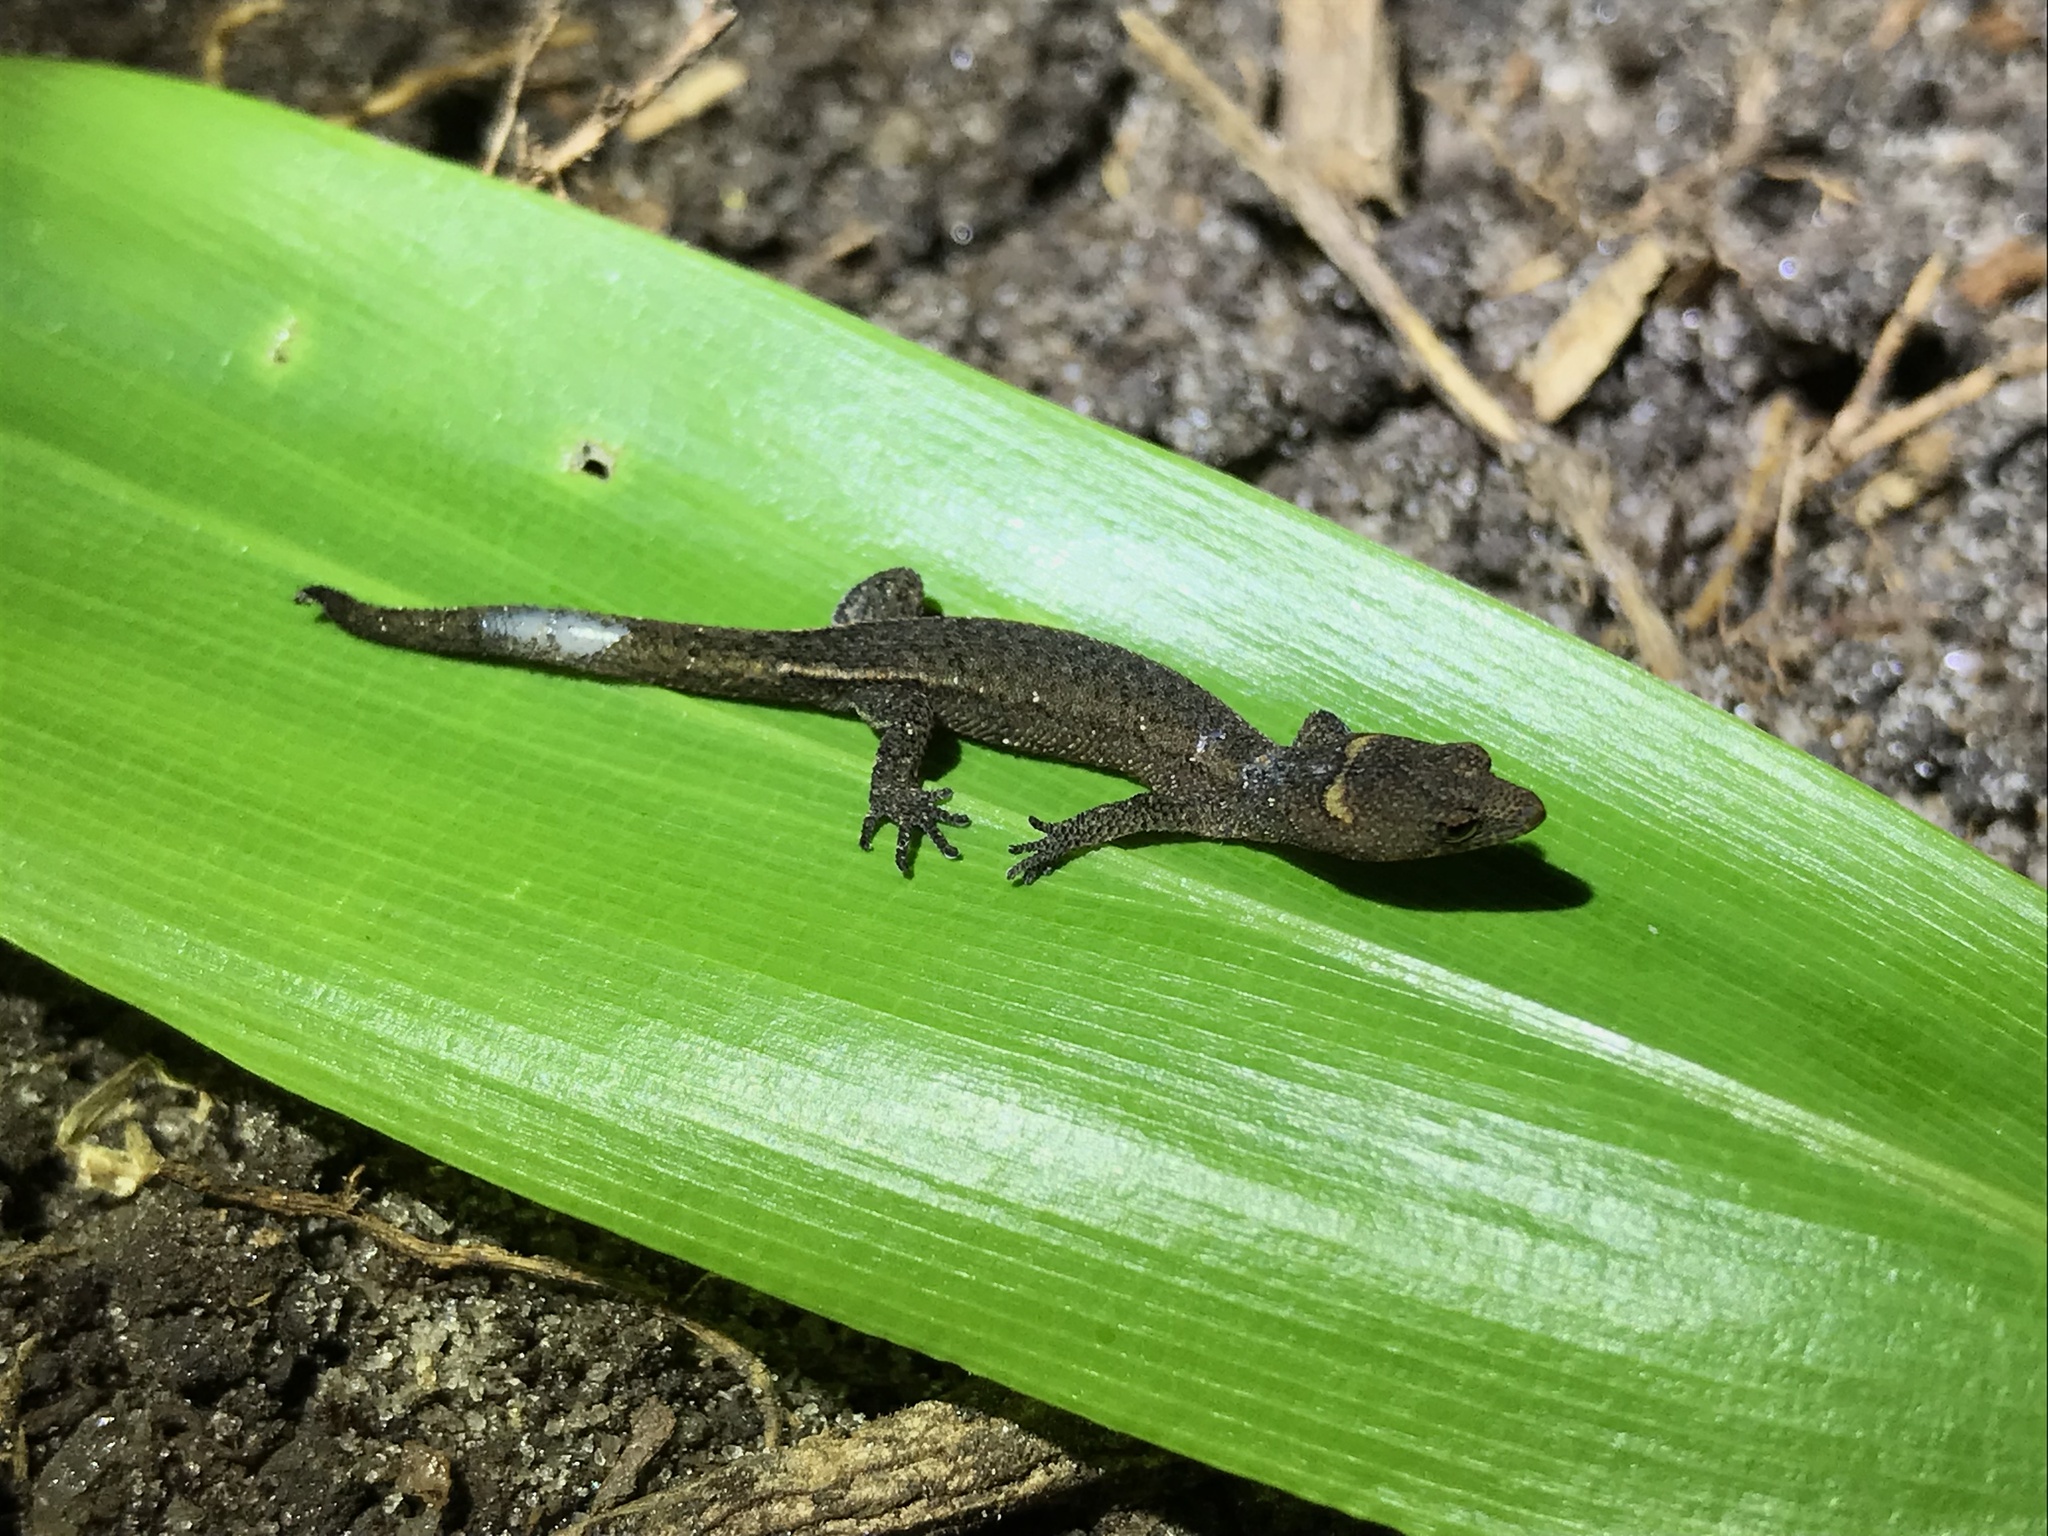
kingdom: Animalia
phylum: Chordata
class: Squamata
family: Sphaerodactylidae
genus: Coleodactylus
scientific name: Coleodactylus meridionalis
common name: Meridian gecko
